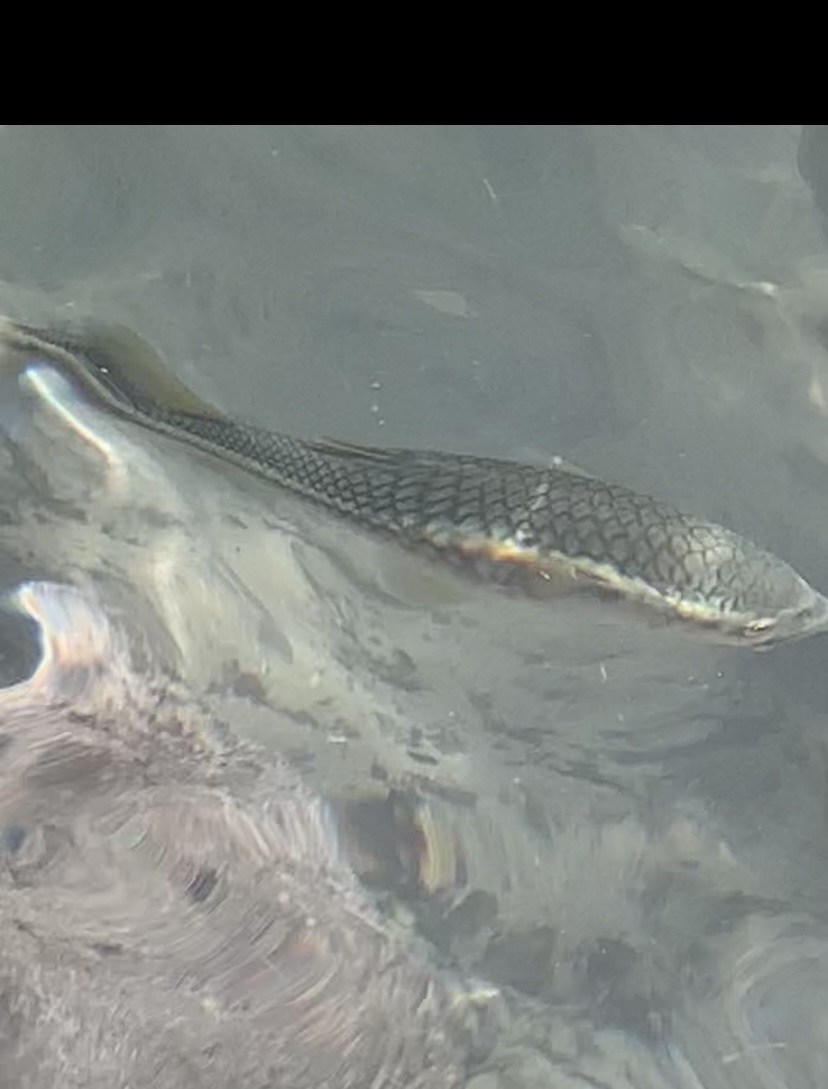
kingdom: Animalia
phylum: Chordata
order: Mugiliformes
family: Mugilidae
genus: Dajaus
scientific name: Dajaus monticola
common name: Mountain mullet
